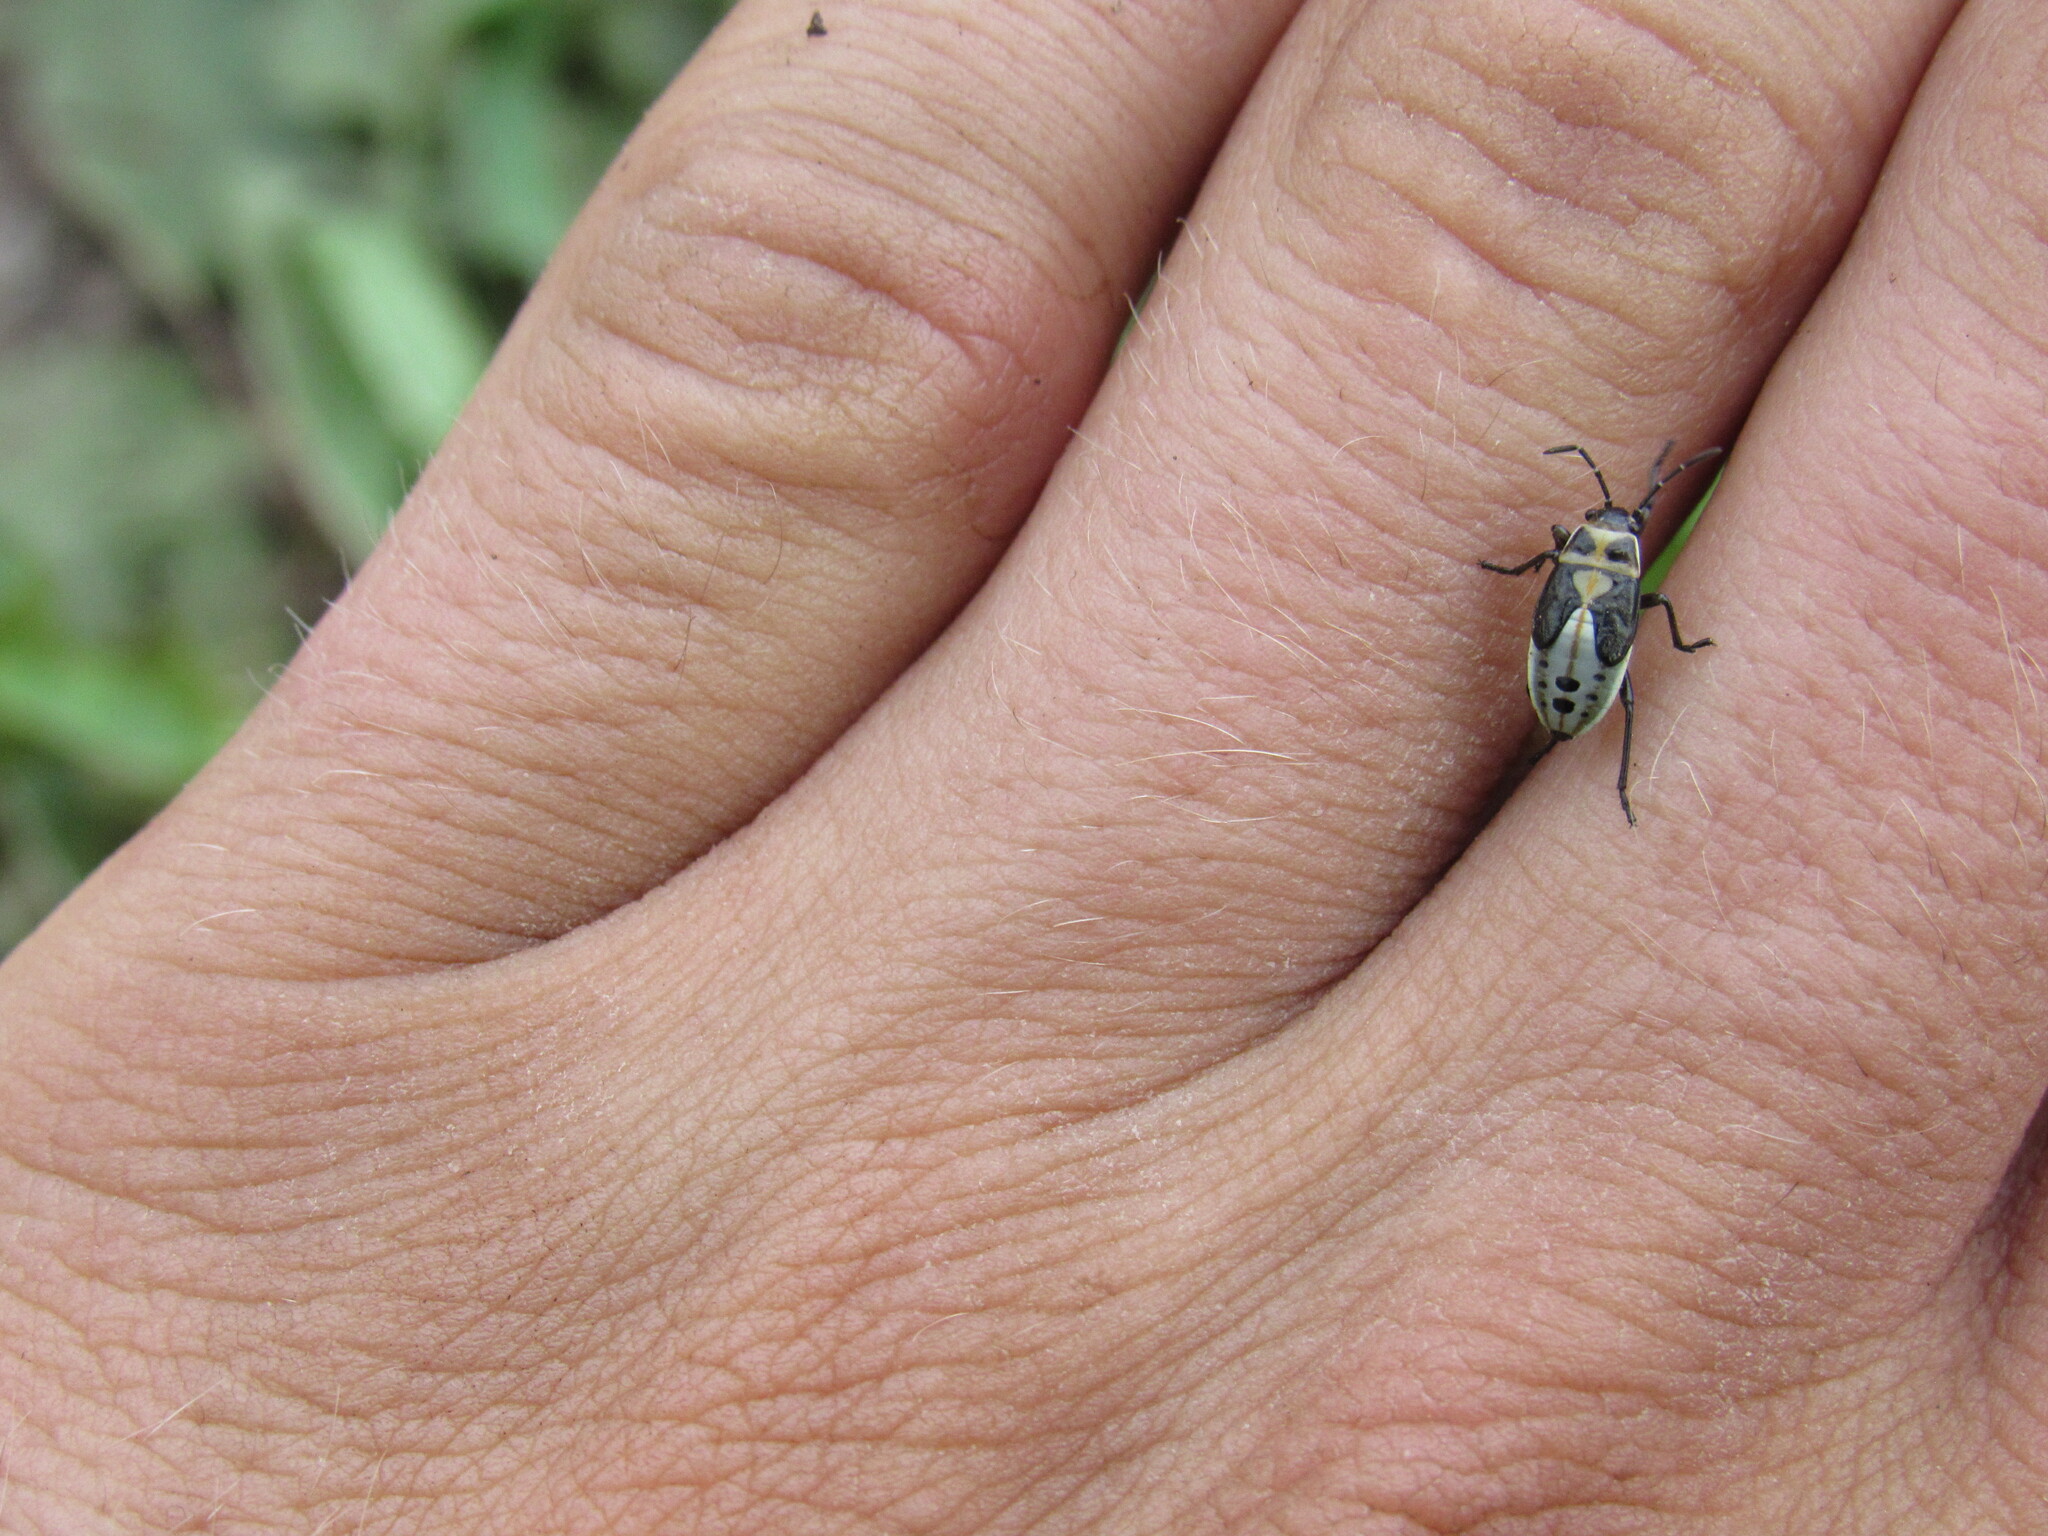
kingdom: Animalia
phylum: Arthropoda
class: Insecta
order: Hemiptera
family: Lygaeidae
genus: Lygaeus
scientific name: Lygaeus
